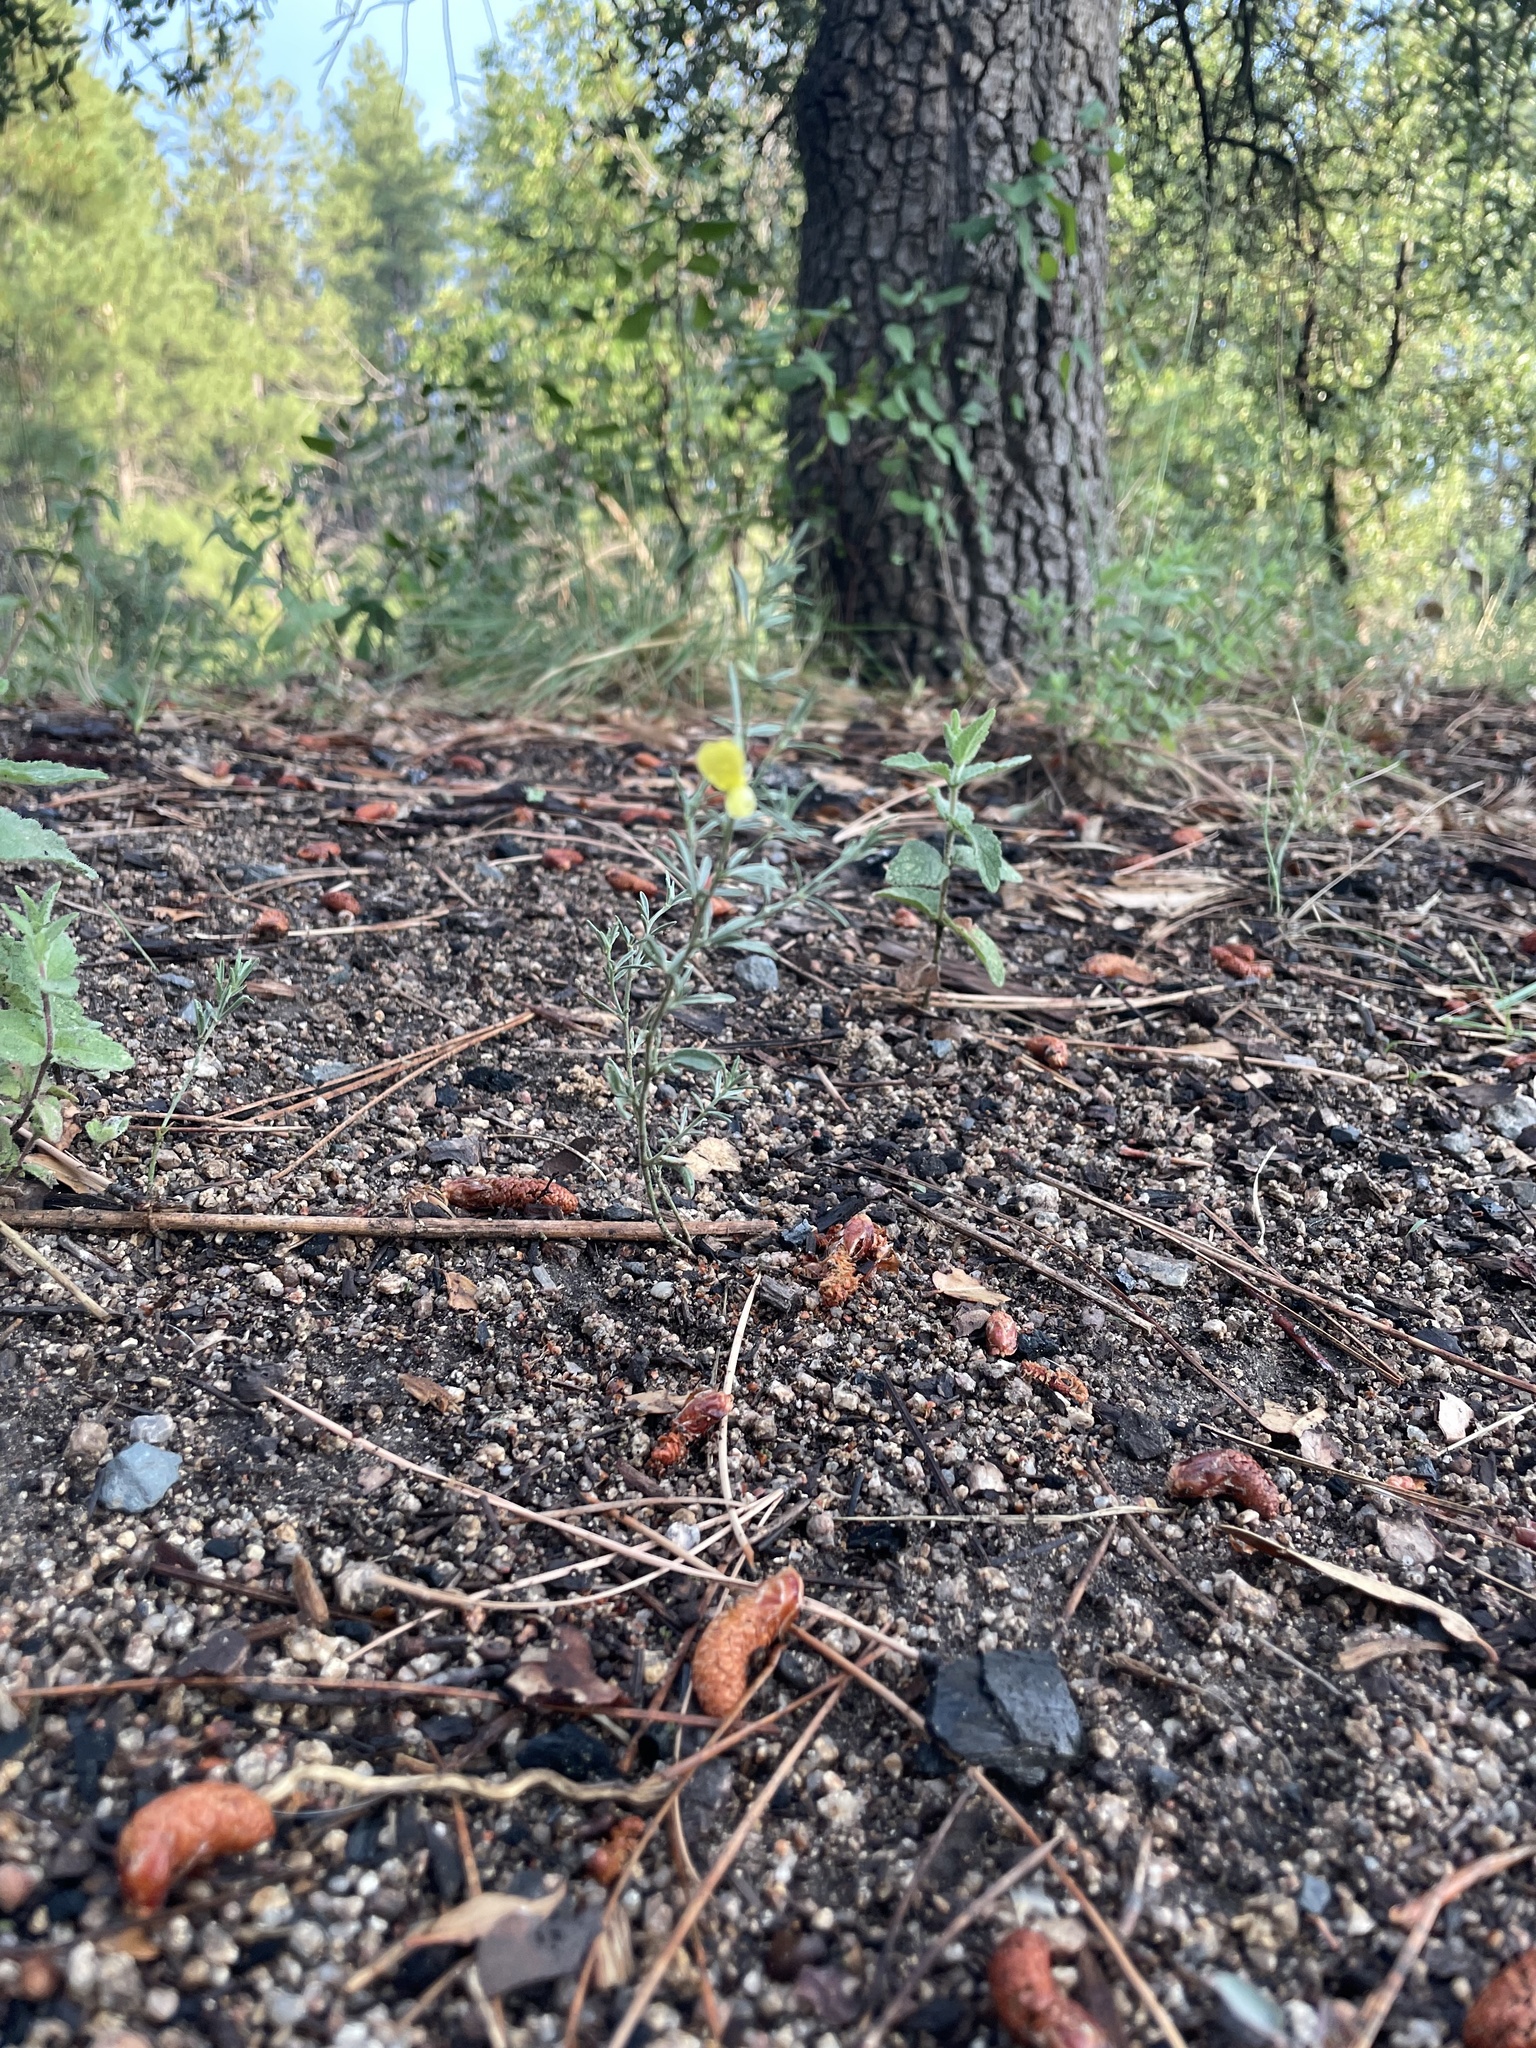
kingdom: Plantae
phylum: Tracheophyta
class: Magnoliopsida
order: Fabales
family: Fabaceae
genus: Acmispon
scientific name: Acmispon wrightii
